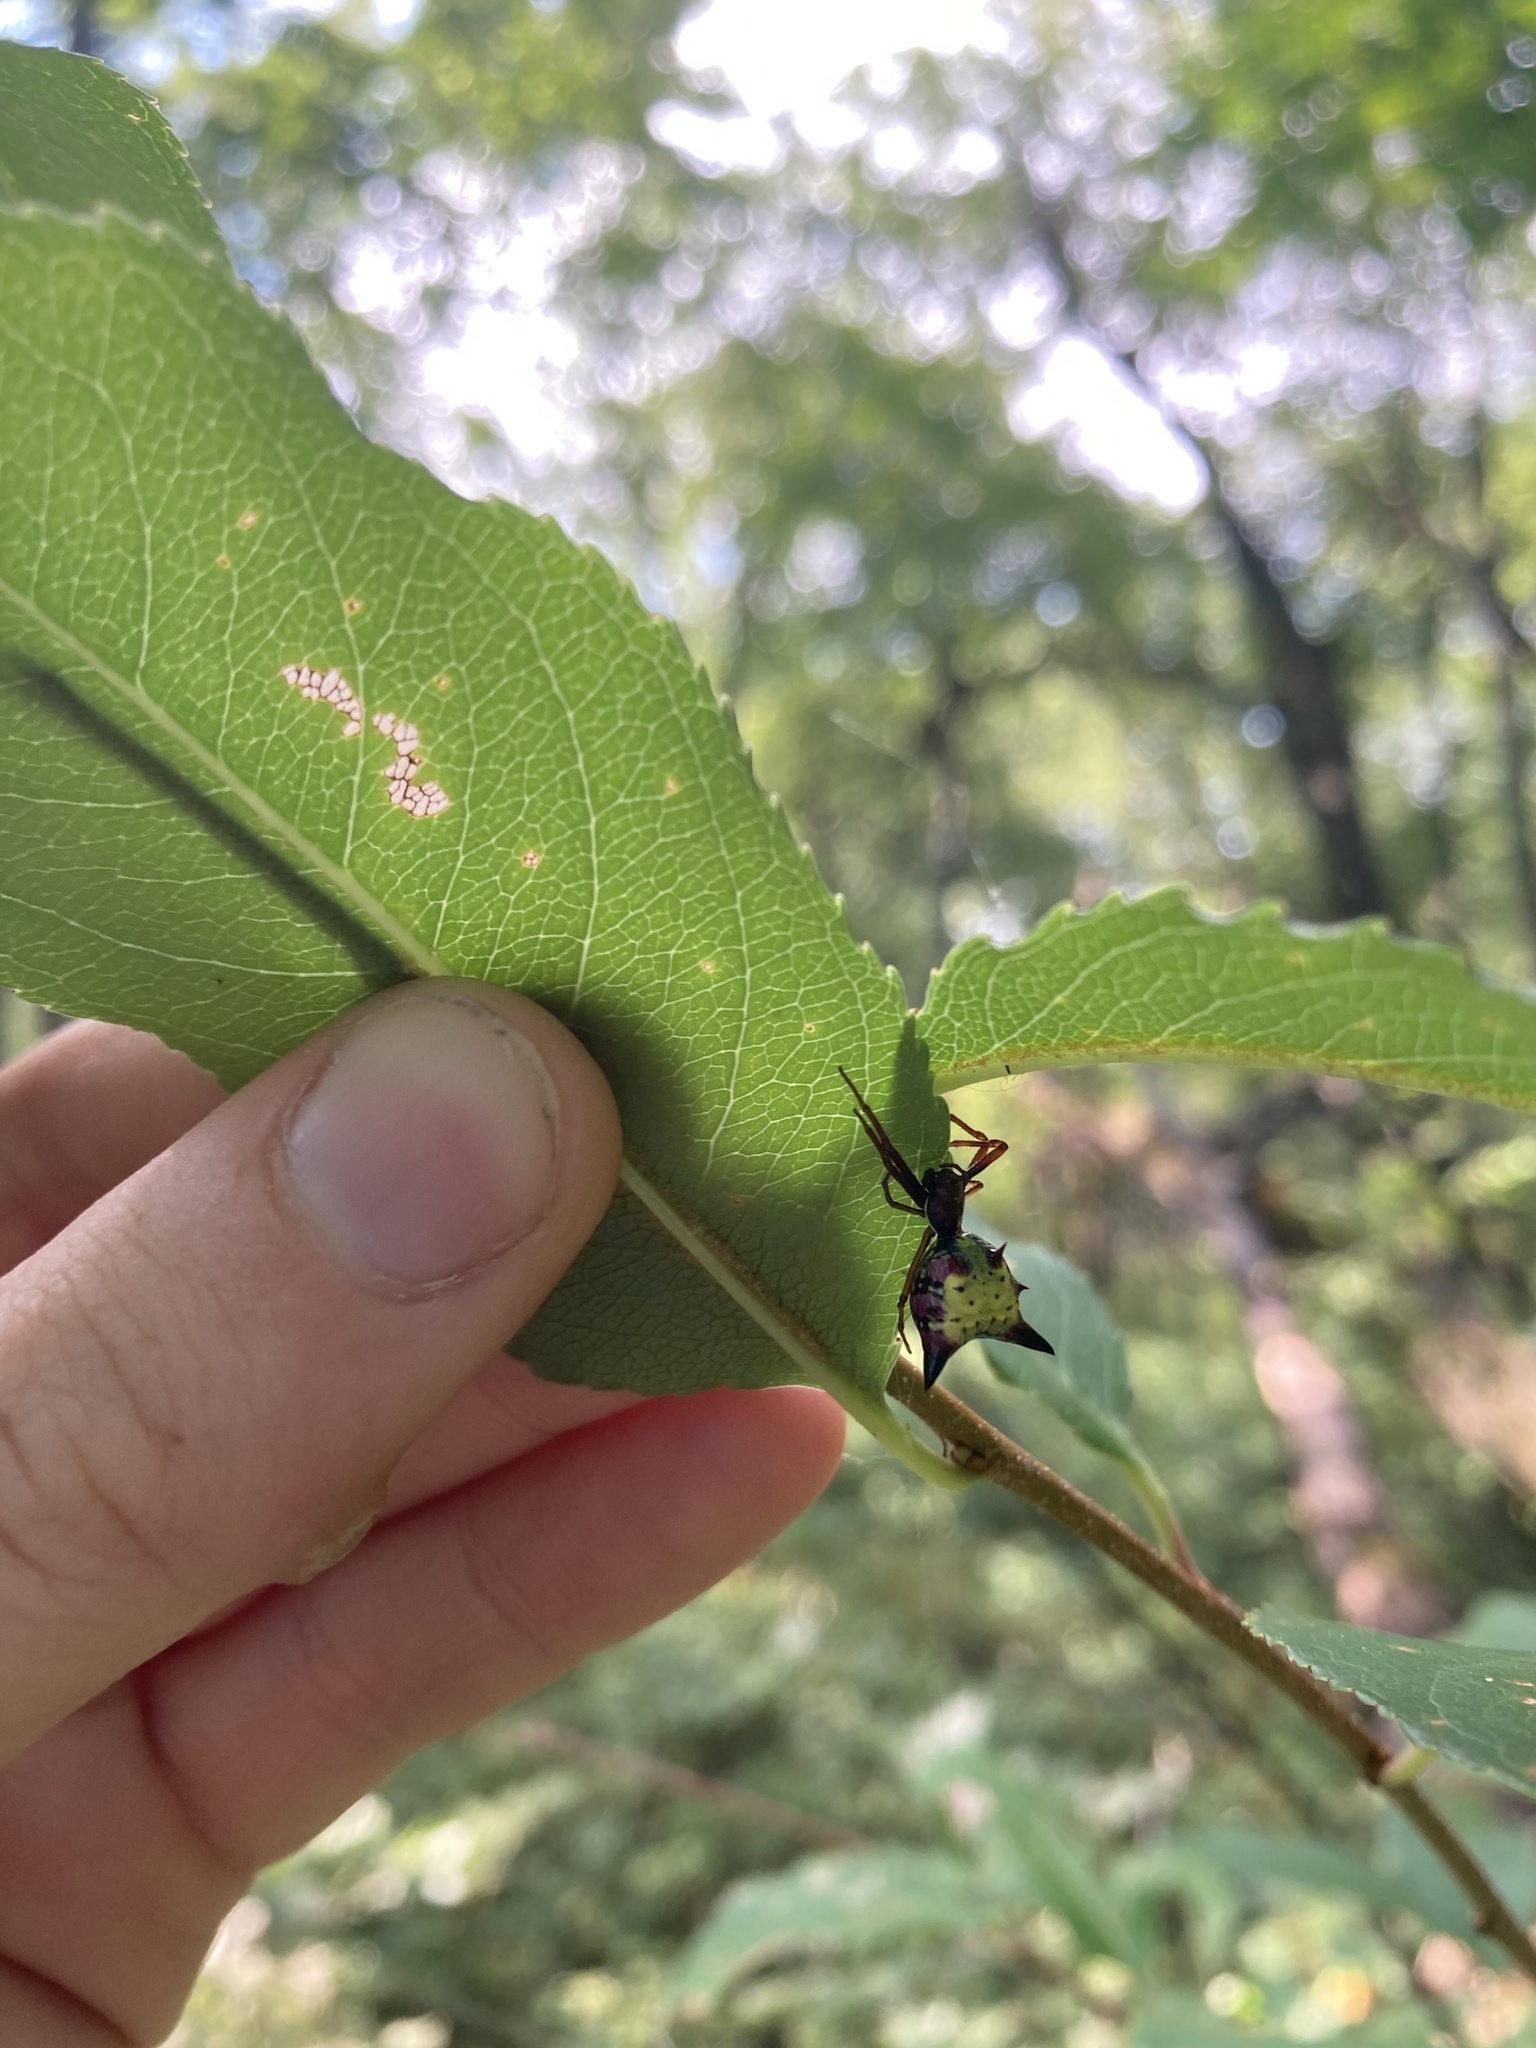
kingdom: Animalia
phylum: Arthropoda
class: Arachnida
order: Araneae
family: Araneidae
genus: Micrathena
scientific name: Micrathena sagittata
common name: Orb weavers
